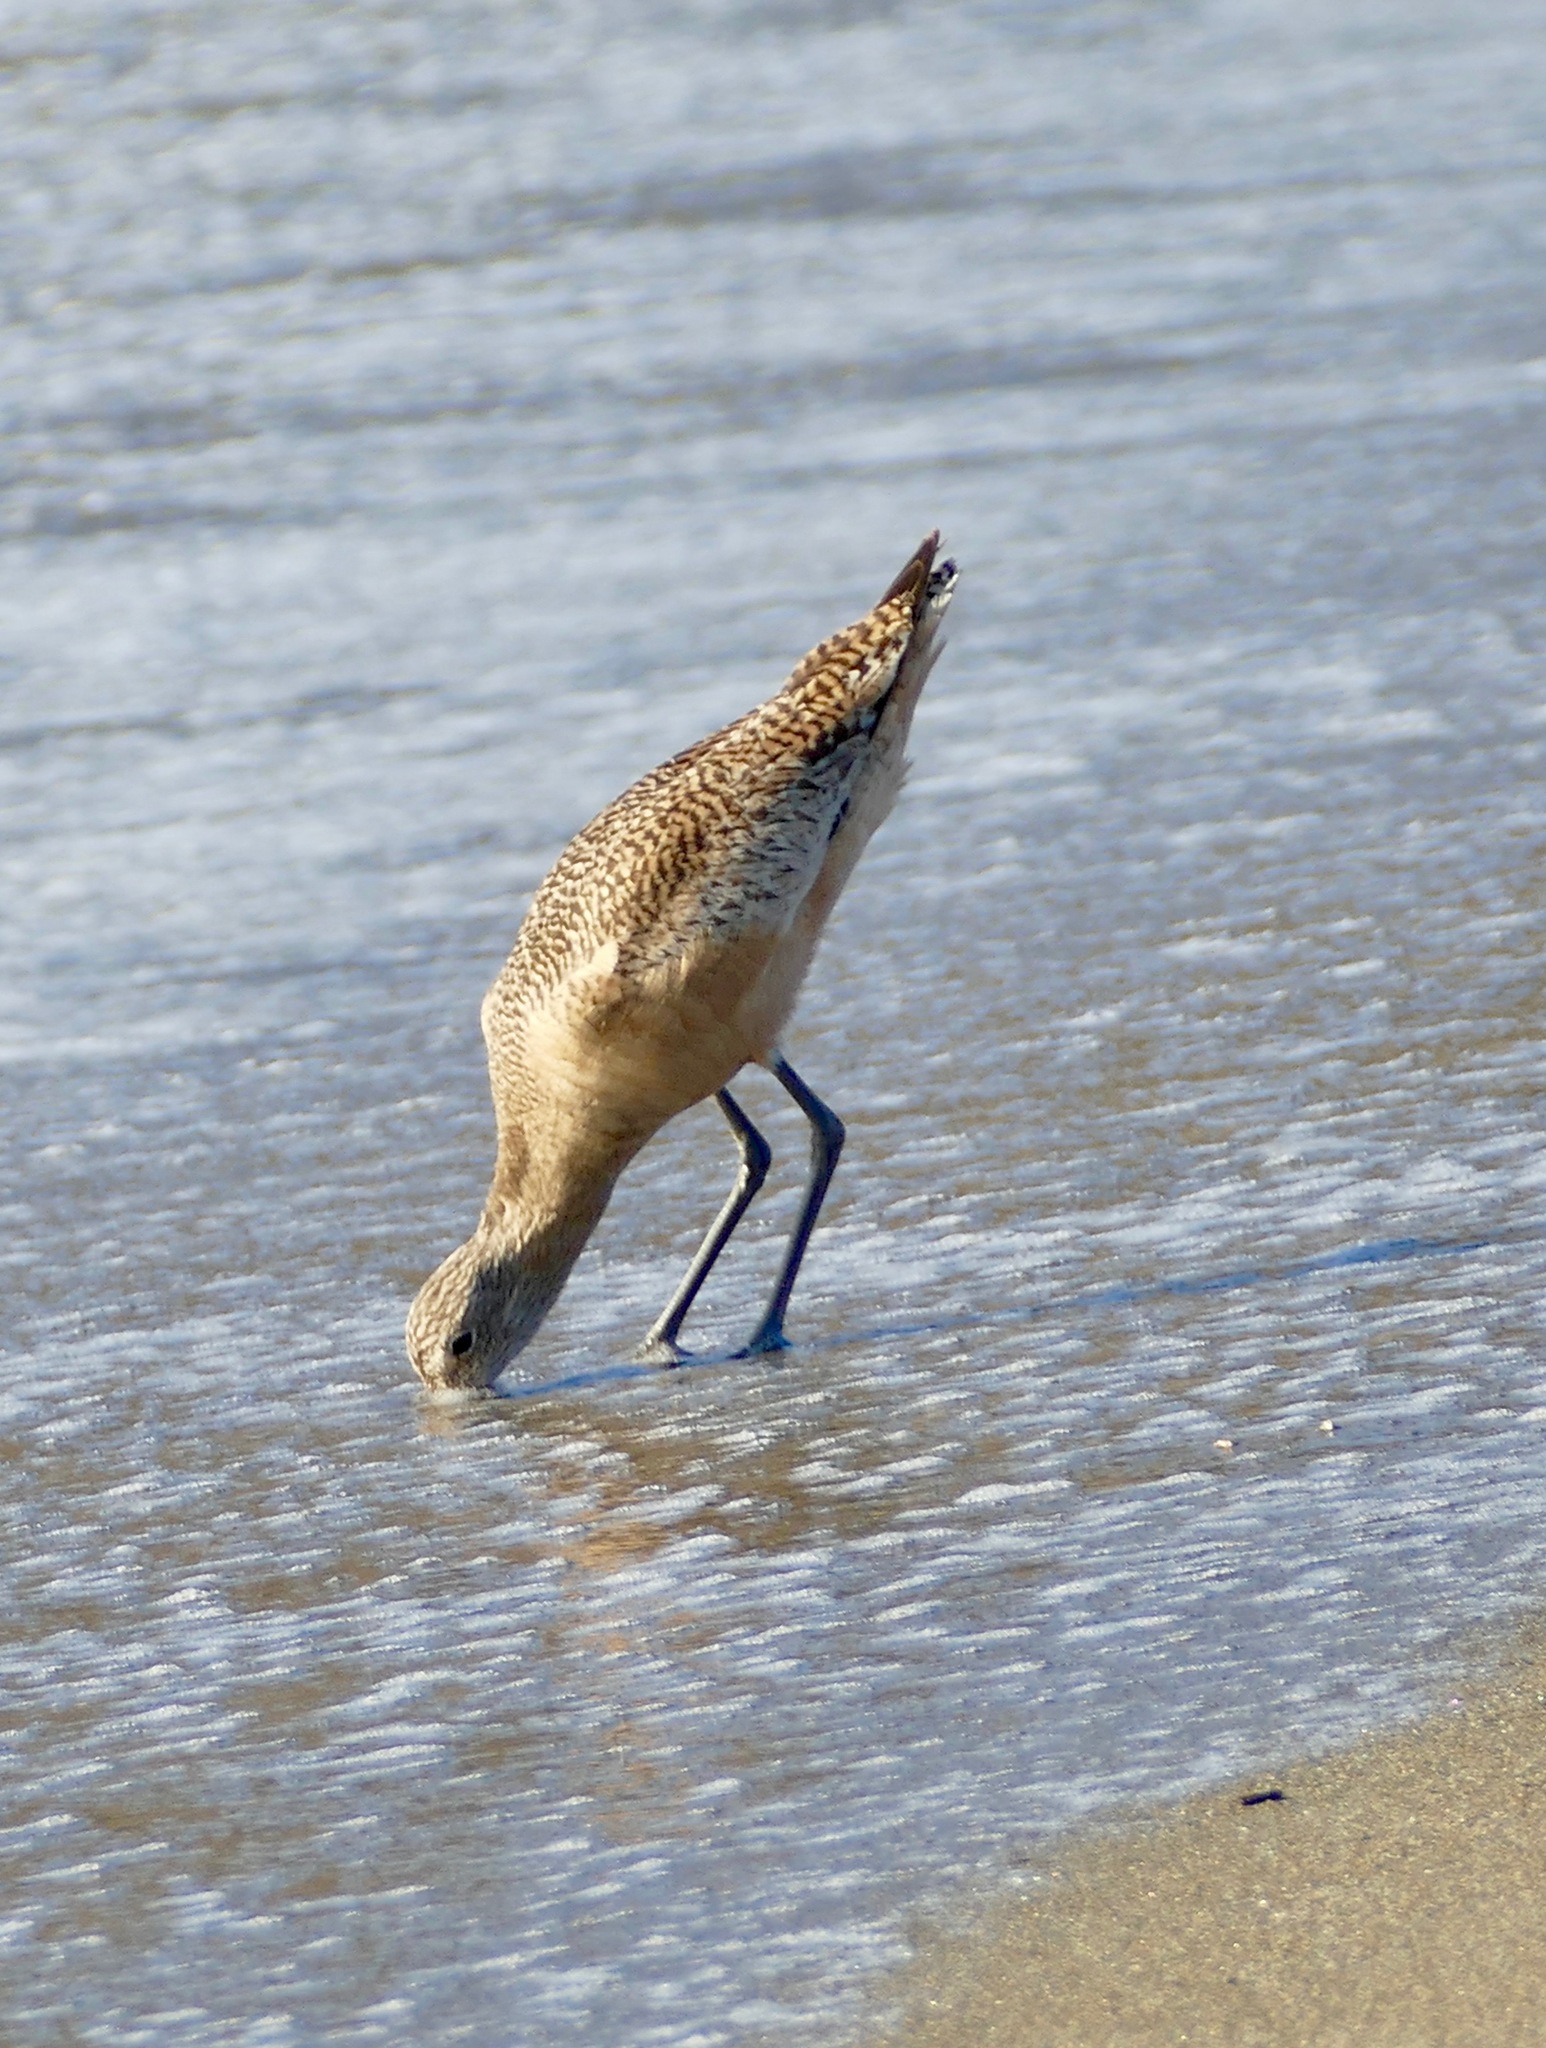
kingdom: Animalia
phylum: Chordata
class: Aves
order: Charadriiformes
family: Scolopacidae
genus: Limosa
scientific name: Limosa fedoa
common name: Marbled godwit
